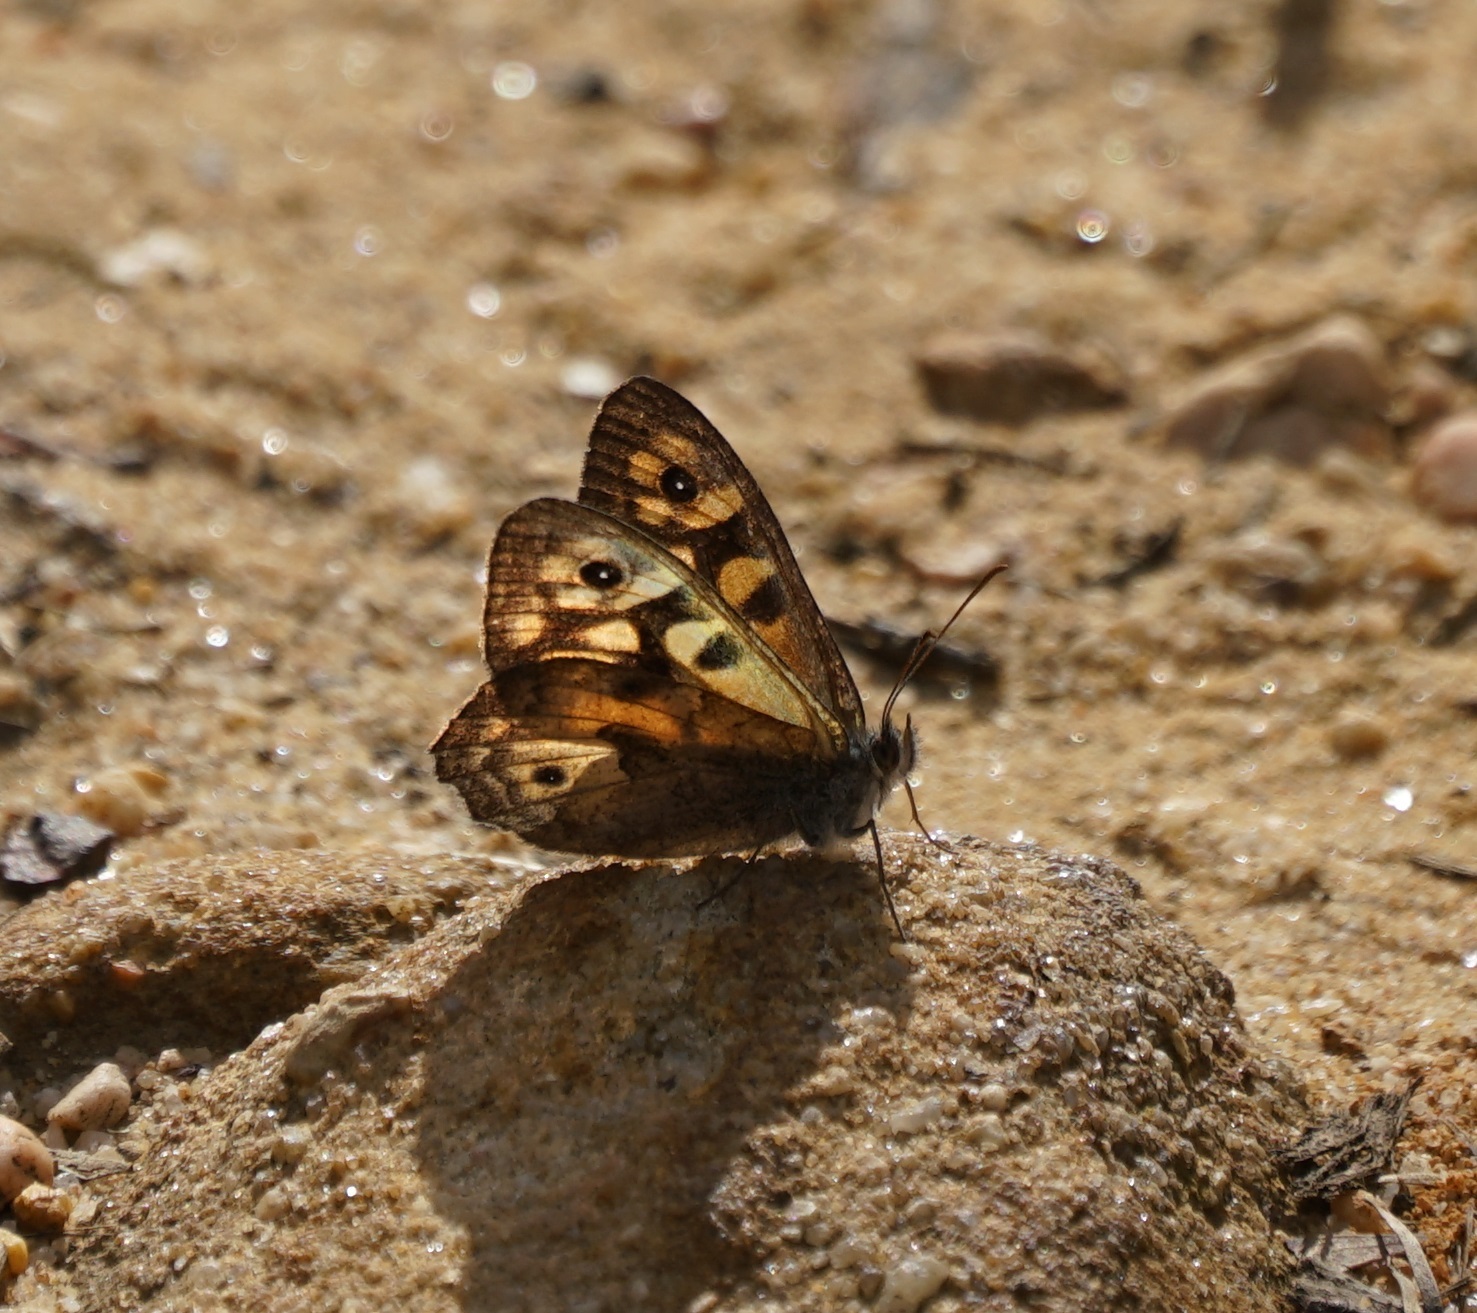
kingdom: Animalia
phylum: Arthropoda
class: Insecta
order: Lepidoptera
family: Nymphalidae
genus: Geitoneura
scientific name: Geitoneura klugii
